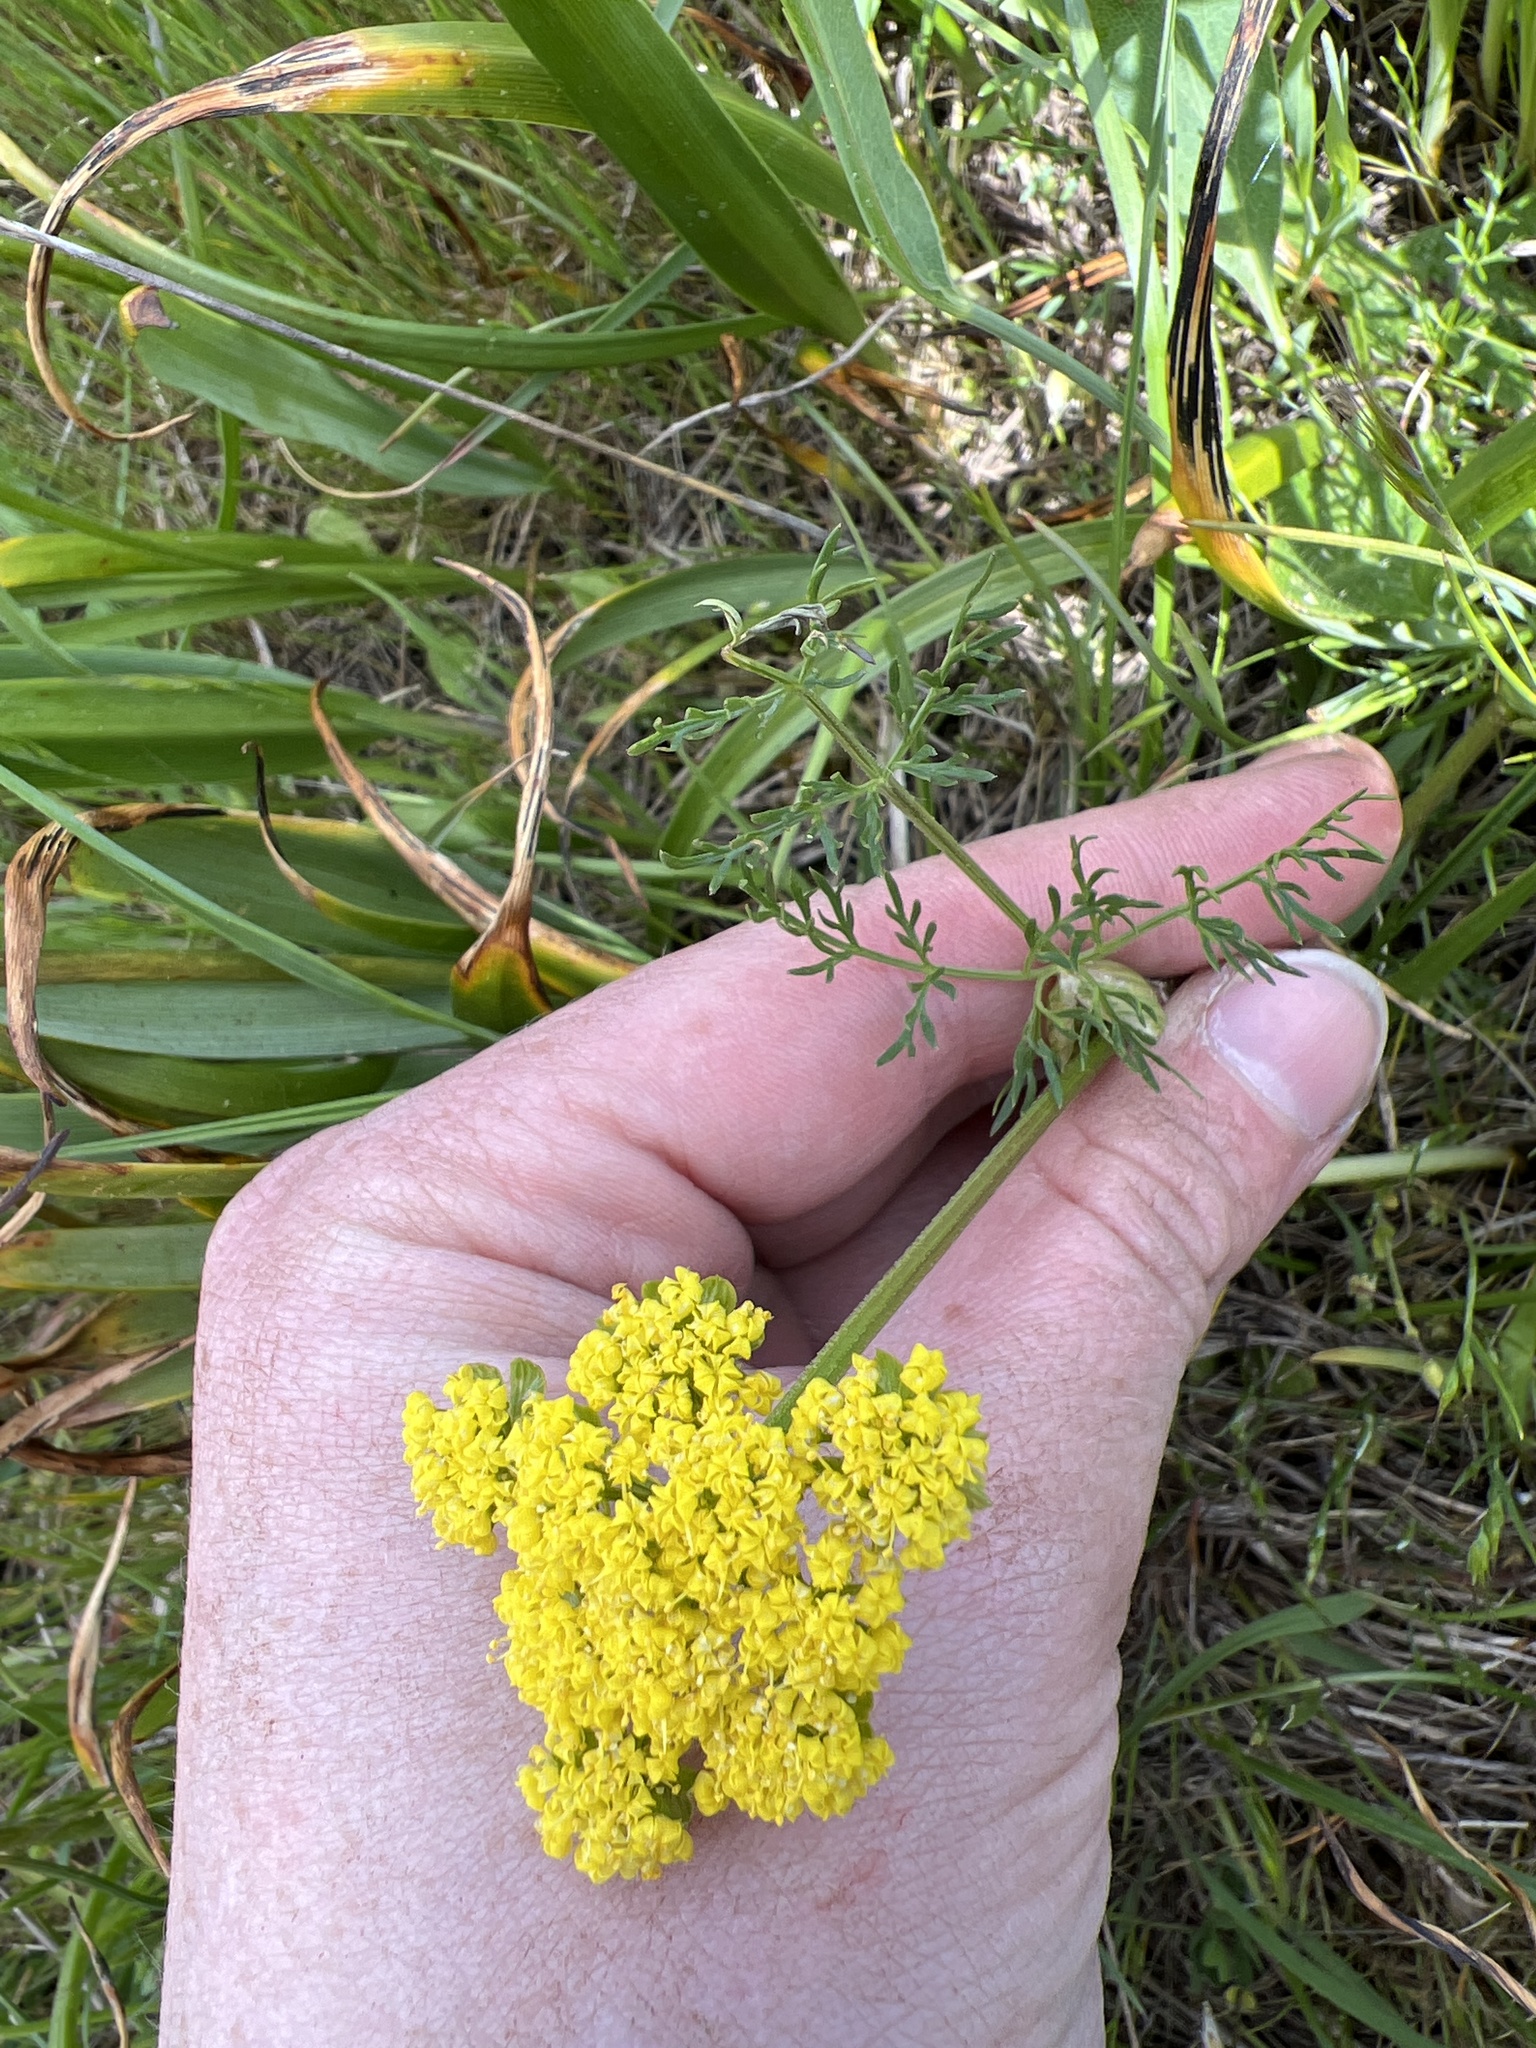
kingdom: Plantae
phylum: Tracheophyta
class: Magnoliopsida
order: Apiales
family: Apiaceae
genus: Lomatium
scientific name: Lomatium utriculatum
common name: Fine-leaf desert-parsley
